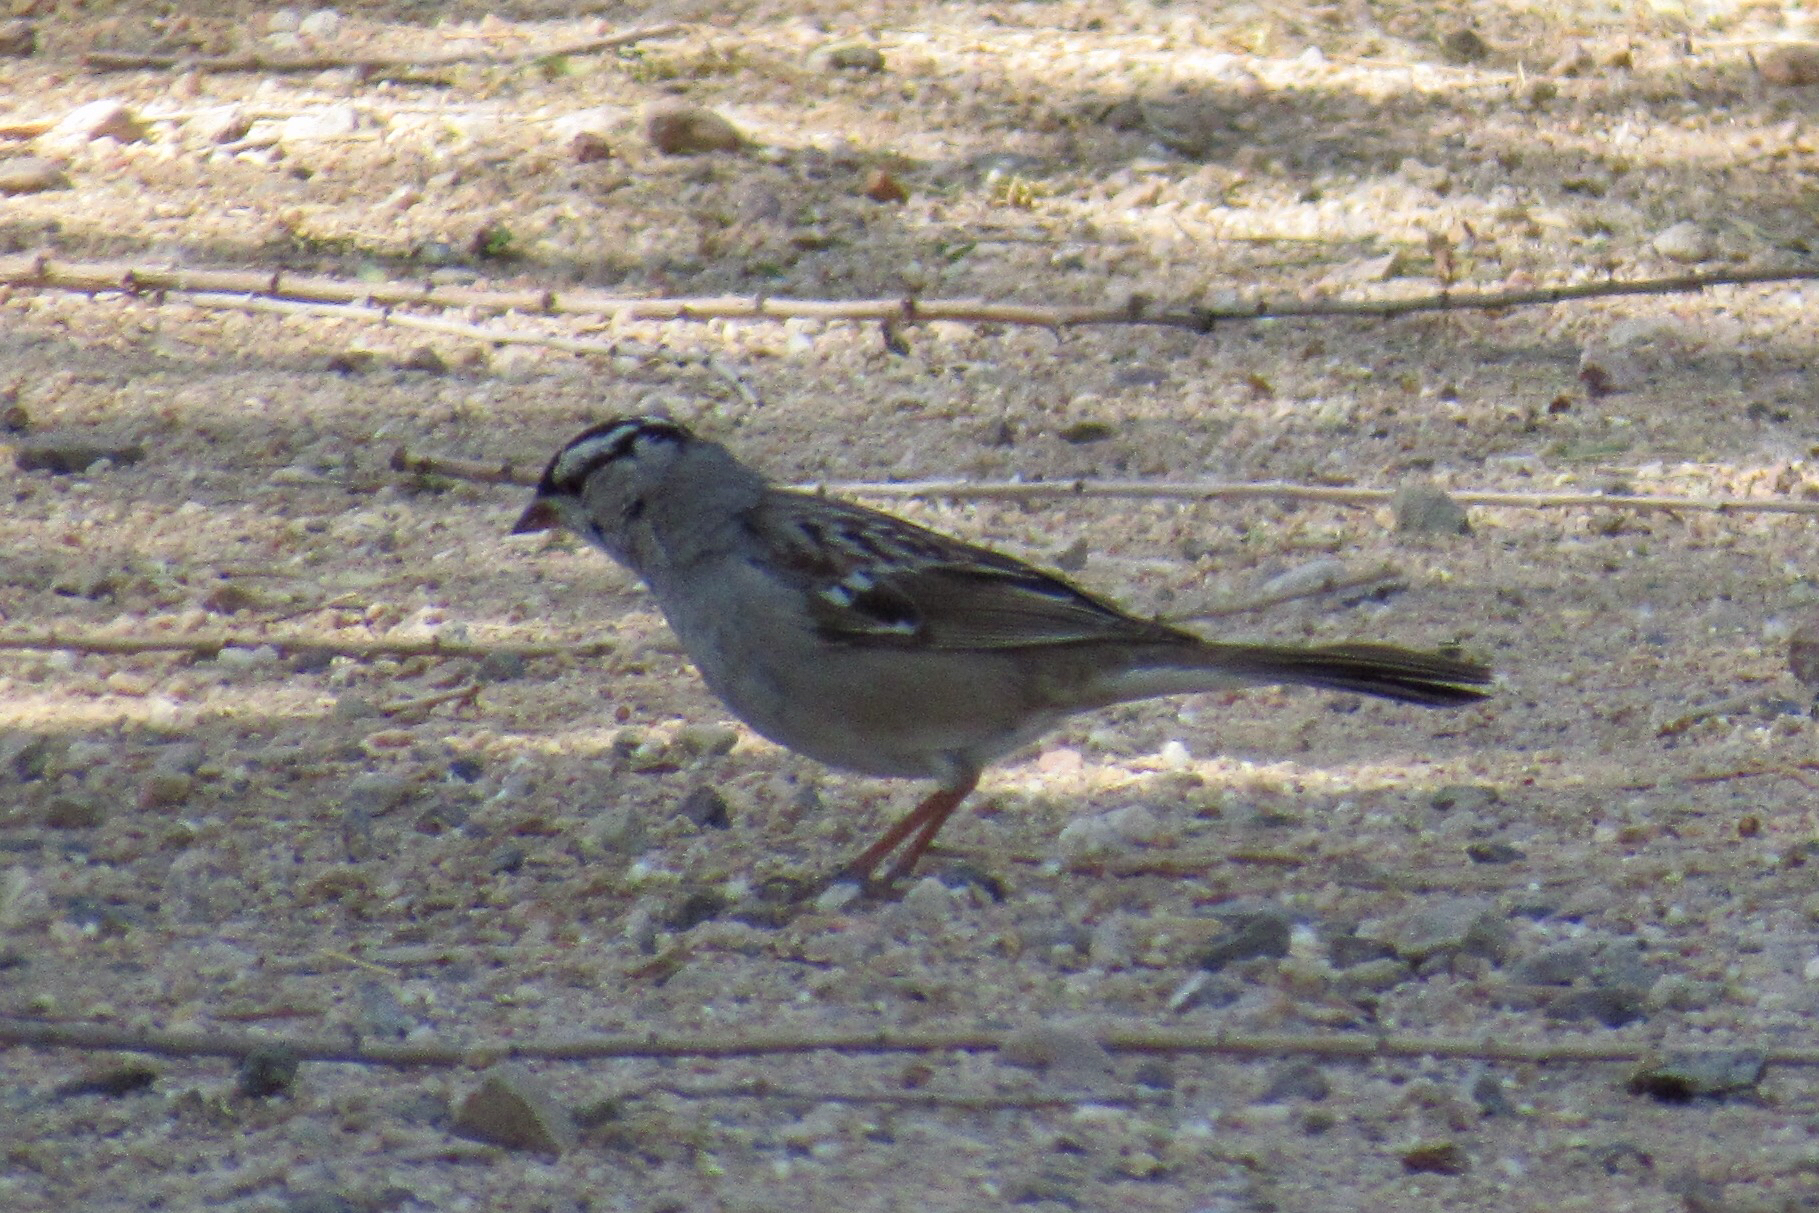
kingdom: Animalia
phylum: Chordata
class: Aves
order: Passeriformes
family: Passerellidae
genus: Zonotrichia
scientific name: Zonotrichia leucophrys
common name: White-crowned sparrow
